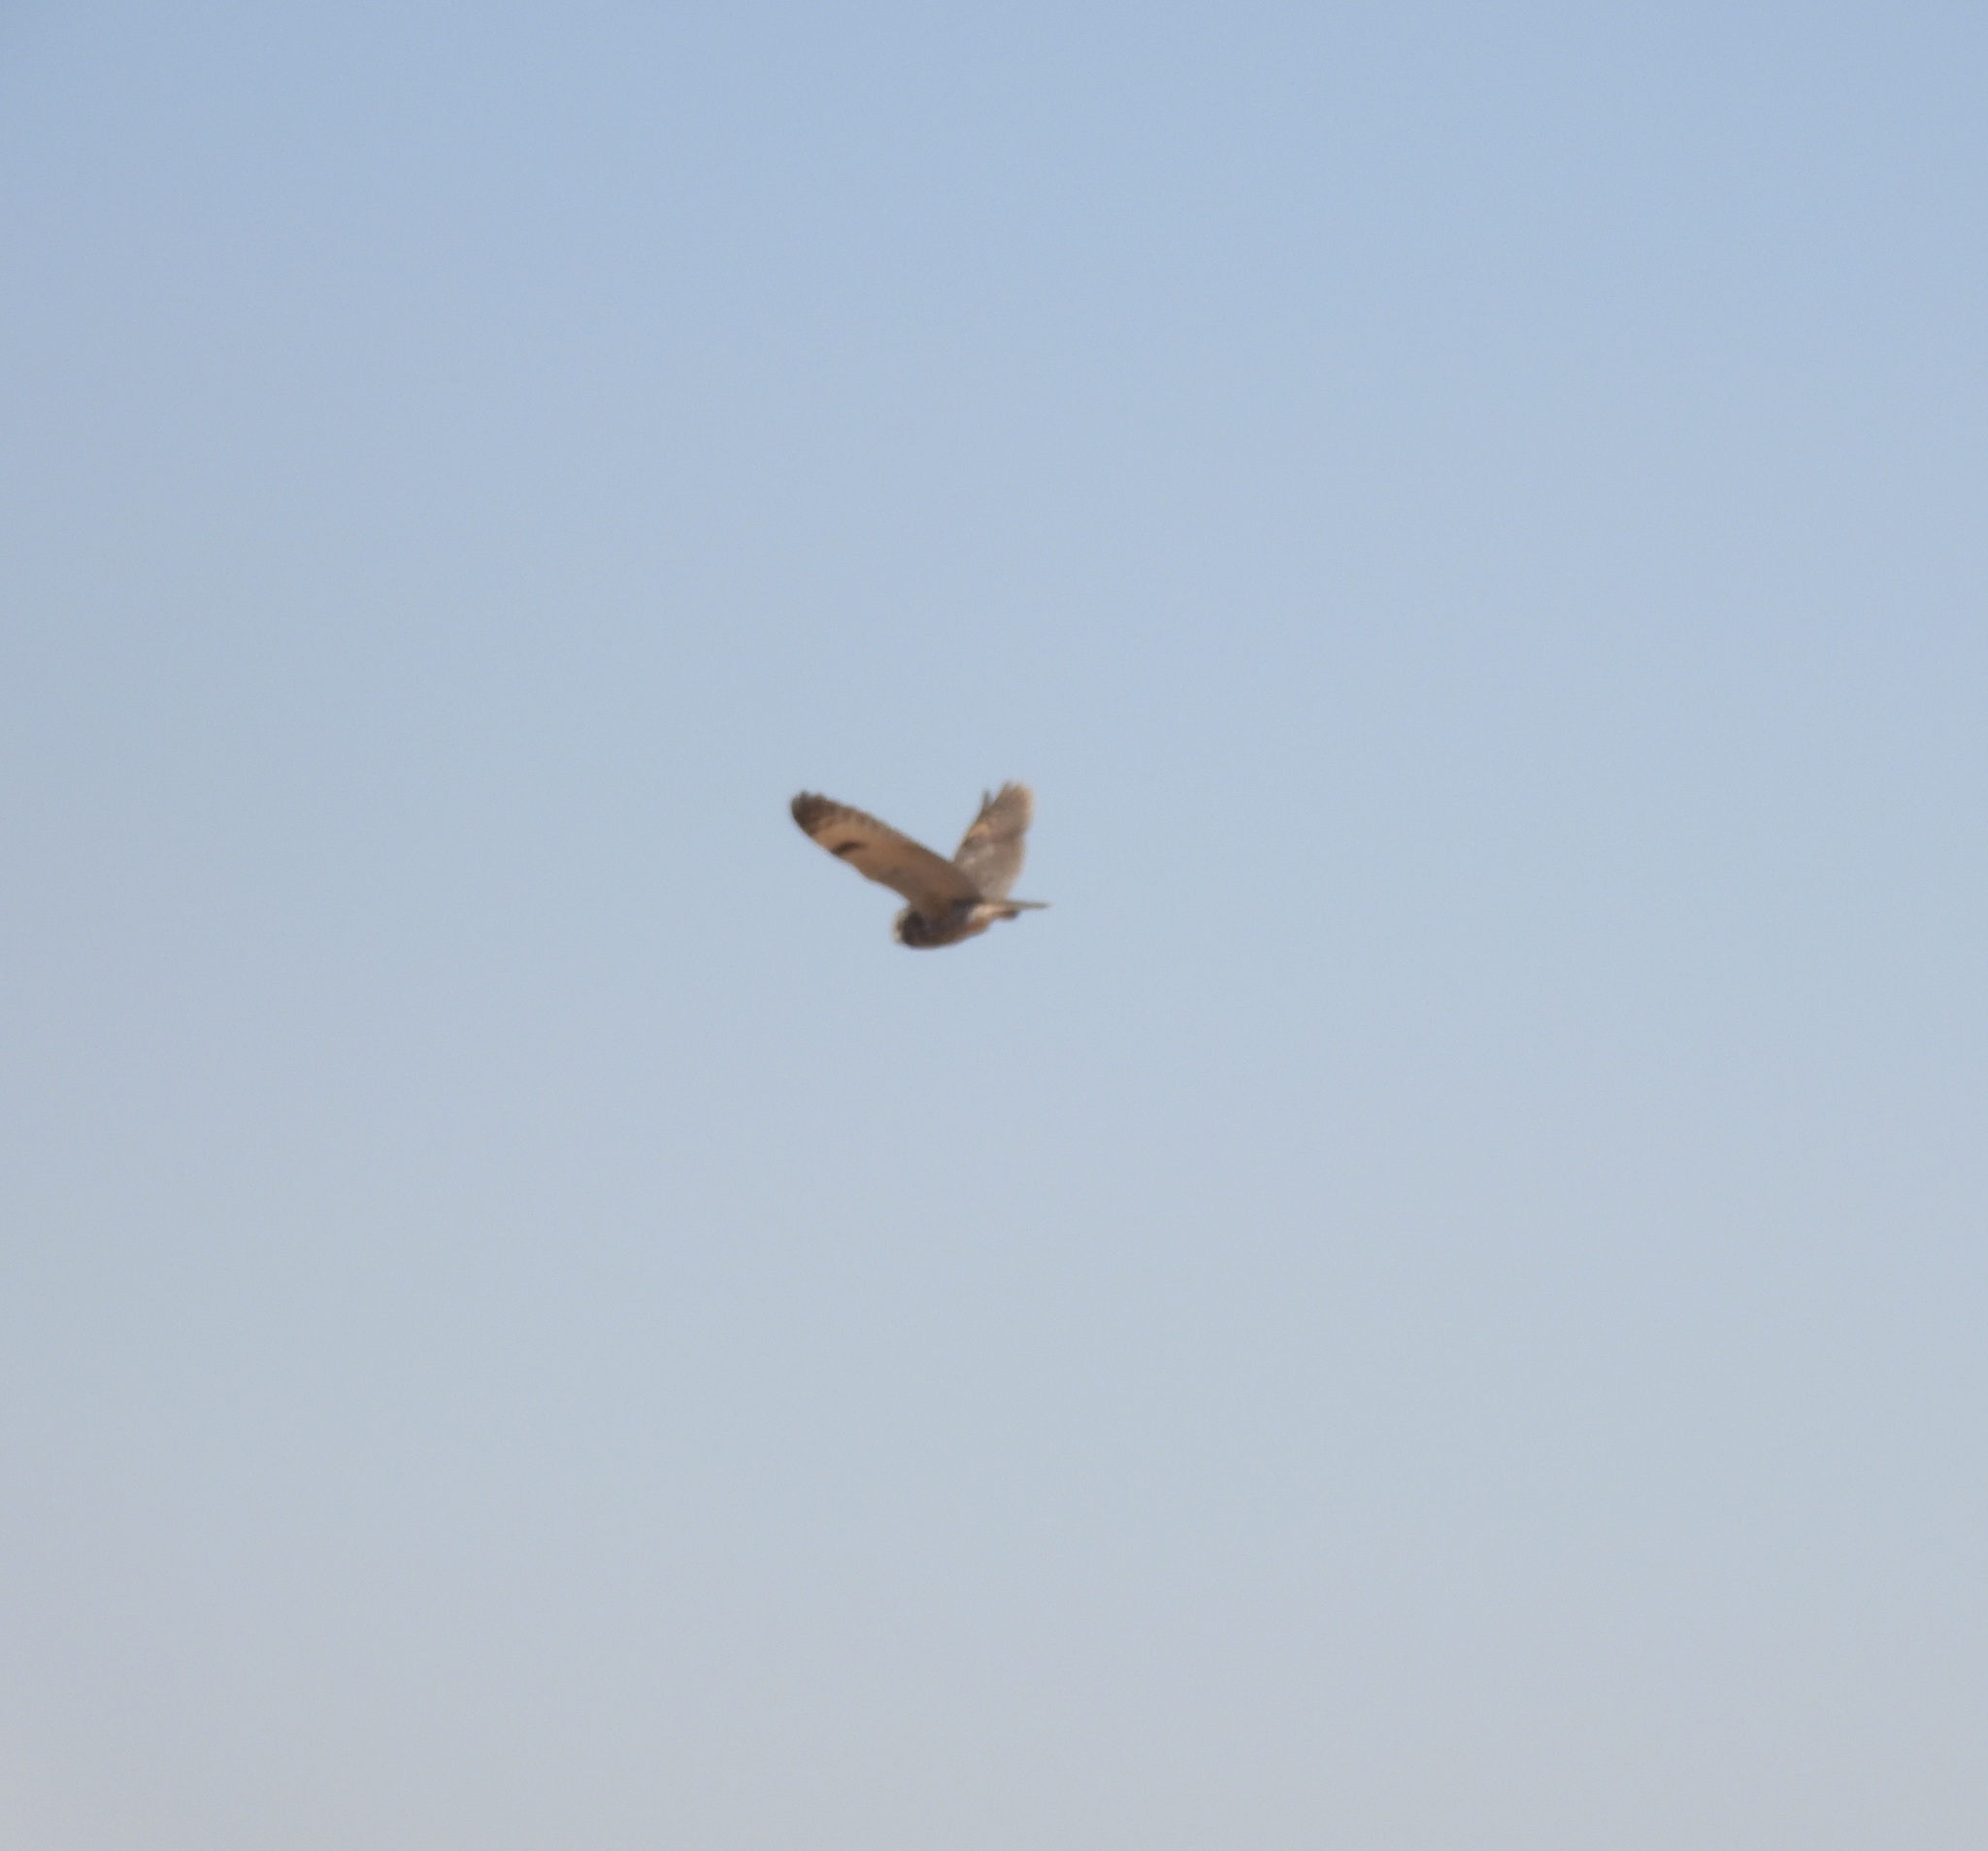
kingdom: Animalia
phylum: Chordata
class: Aves
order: Strigiformes
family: Strigidae
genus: Asio
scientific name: Asio otus
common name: Long-eared owl
